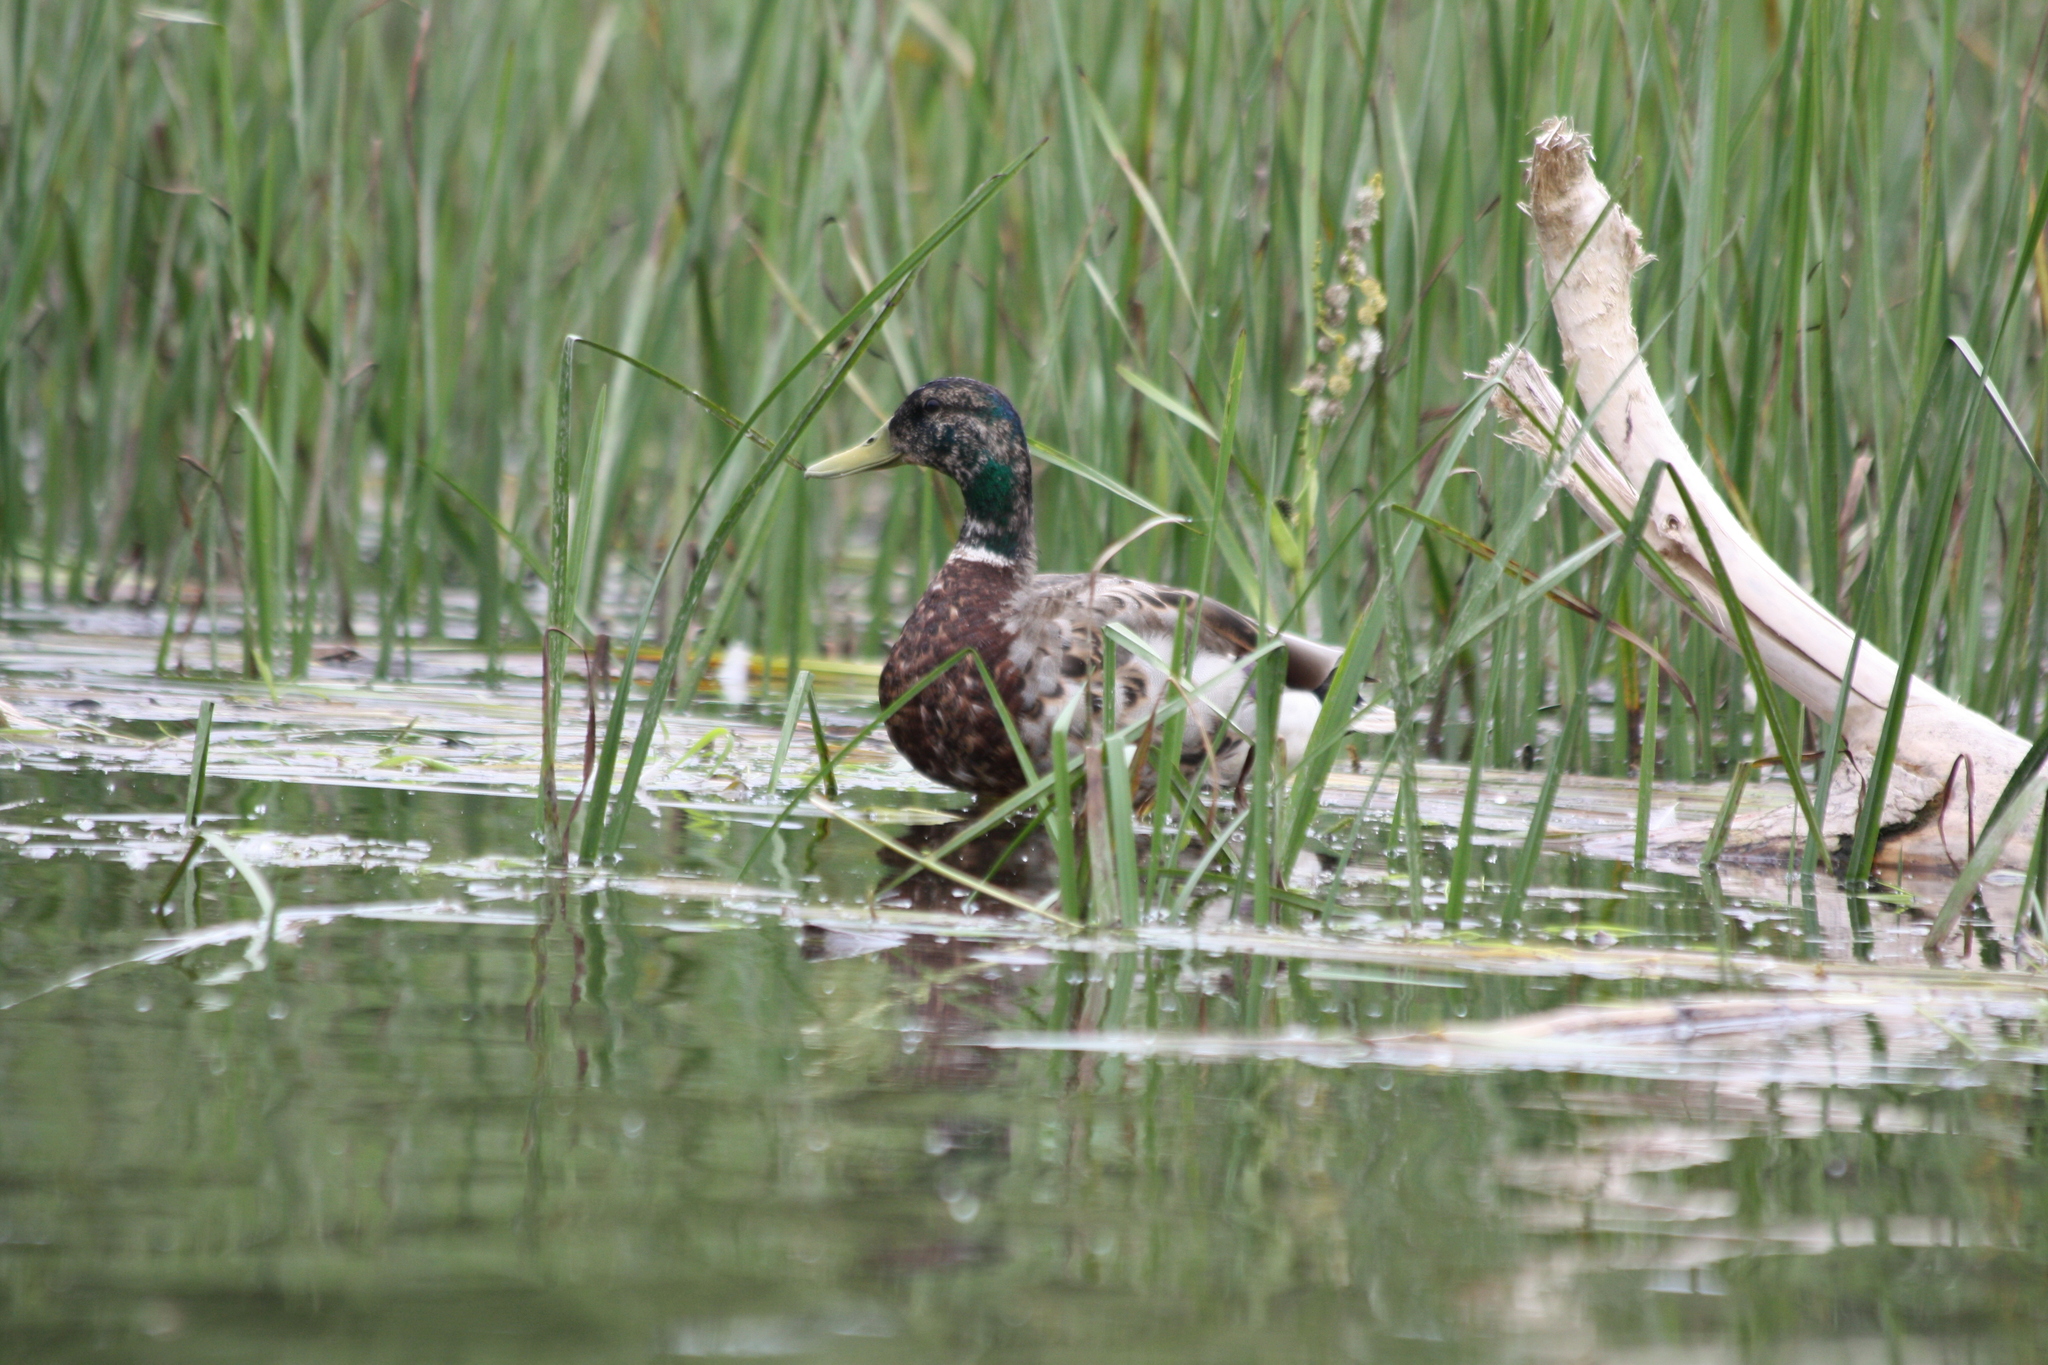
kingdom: Animalia
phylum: Chordata
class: Aves
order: Anseriformes
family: Anatidae
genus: Anas
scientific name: Anas platyrhynchos
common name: Mallard
